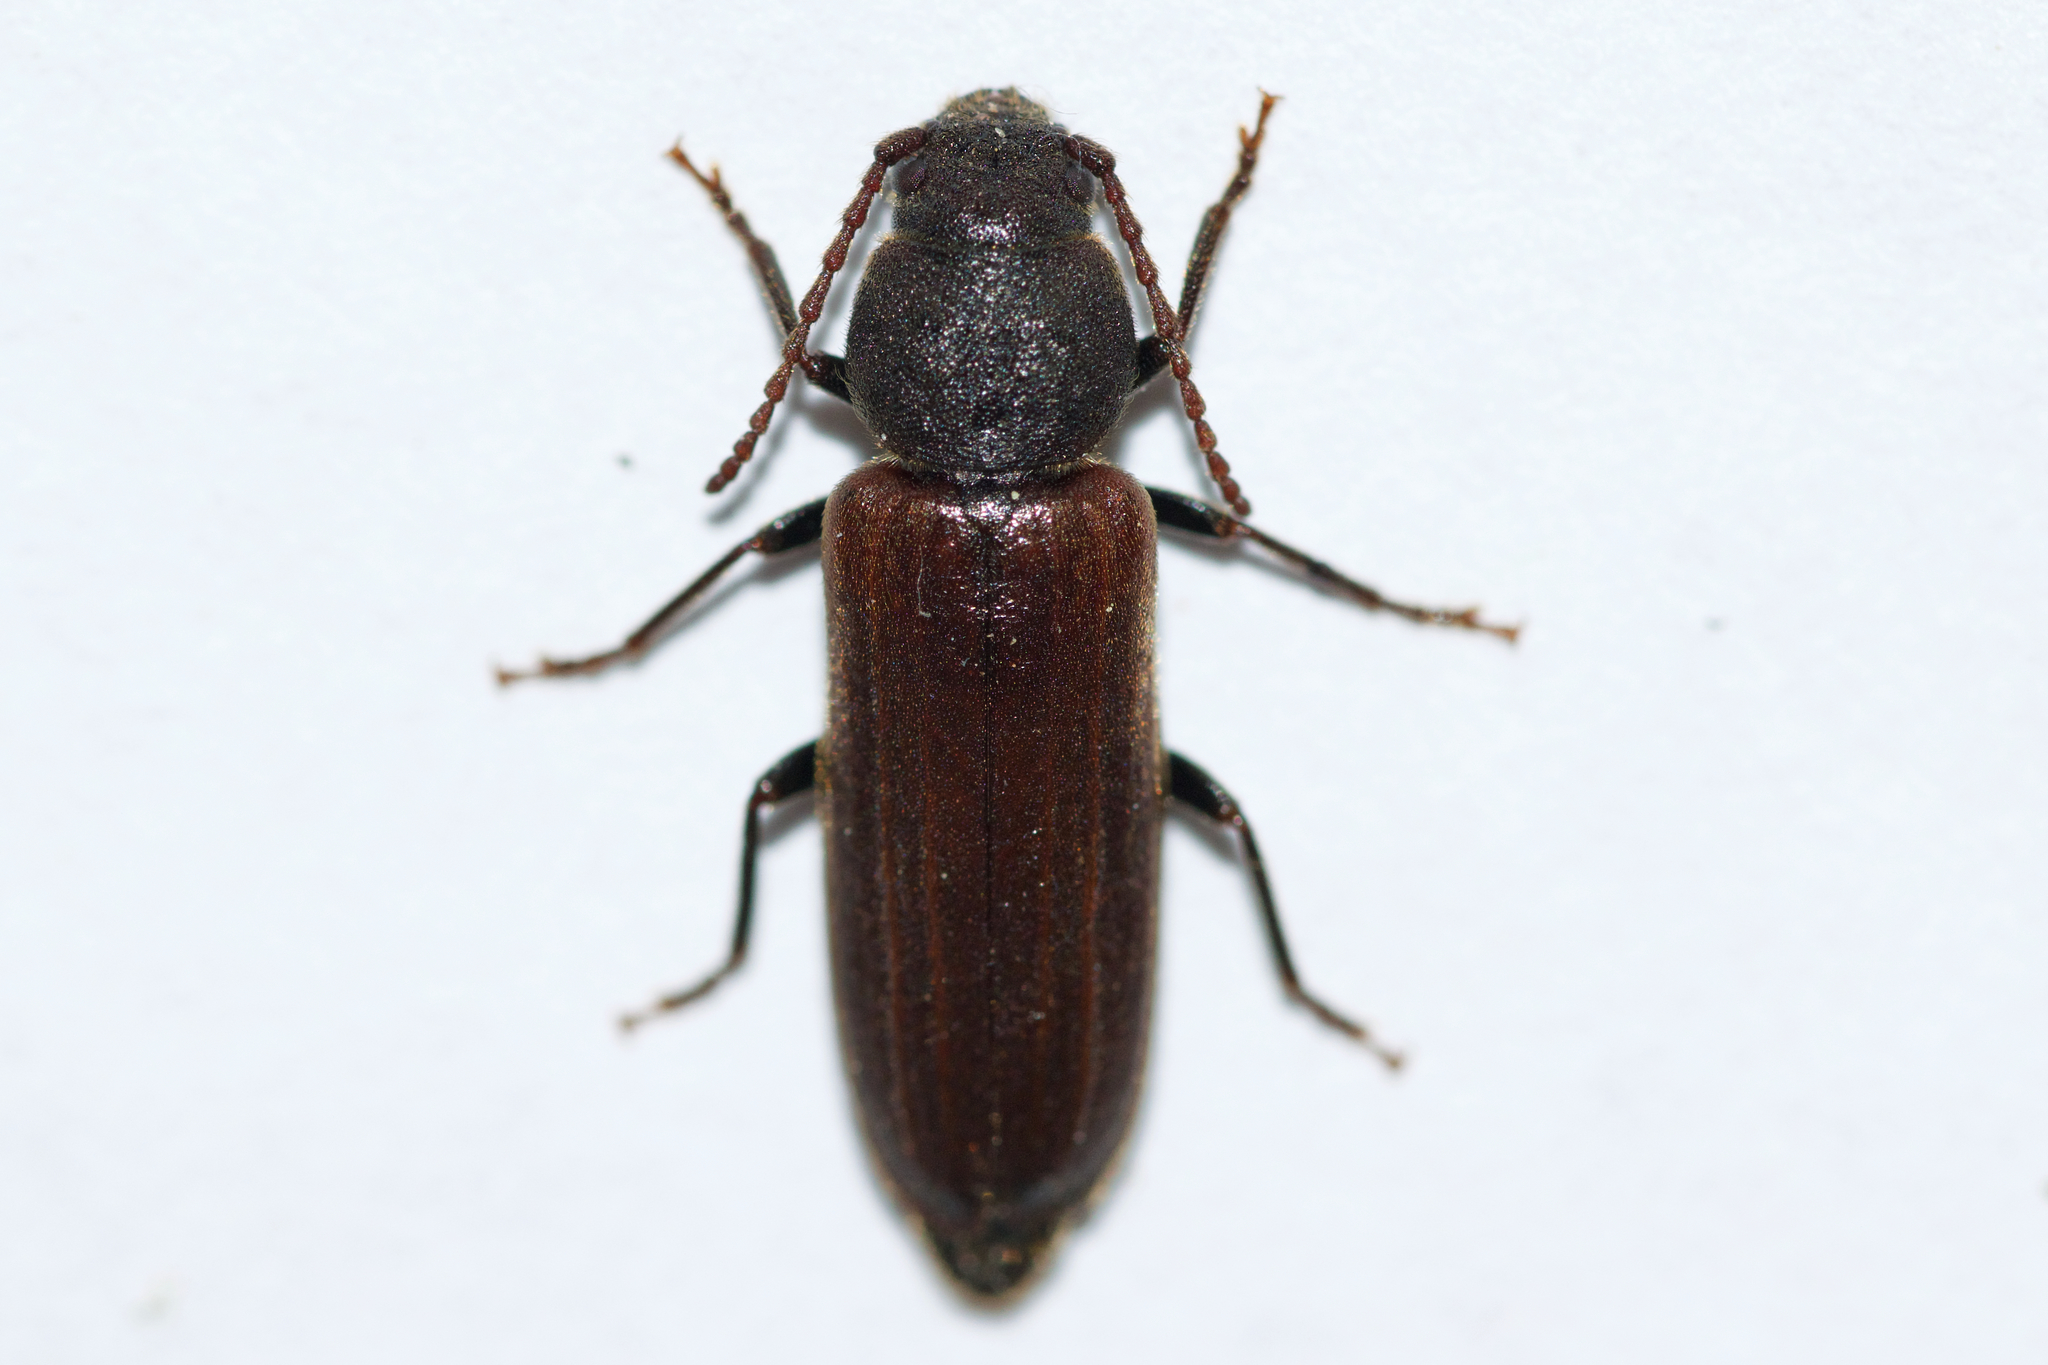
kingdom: Animalia
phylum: Arthropoda
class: Insecta
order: Coleoptera
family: Cerambycidae
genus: Asemum
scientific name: Asemum striatum
